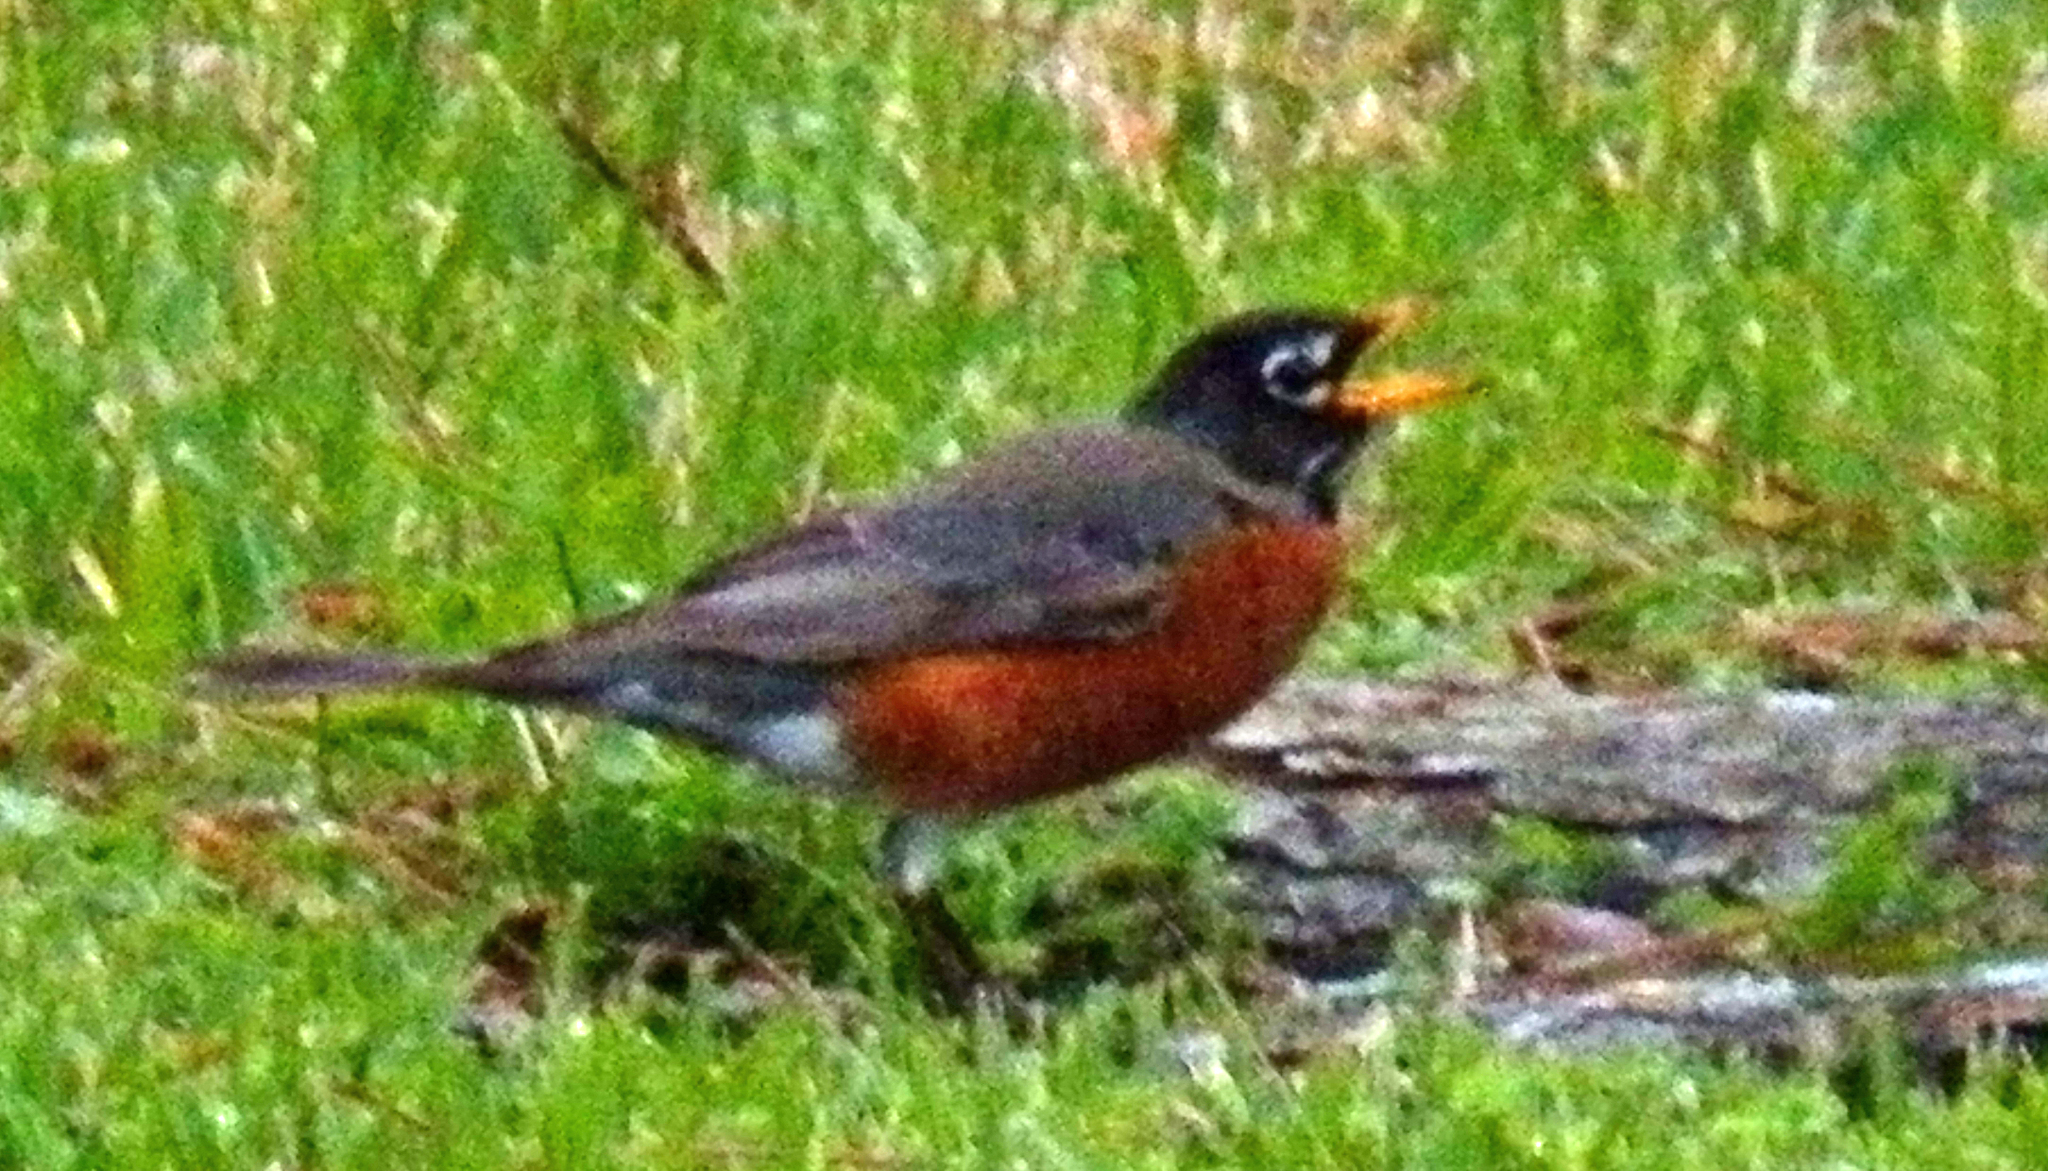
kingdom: Animalia
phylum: Chordata
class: Aves
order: Passeriformes
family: Turdidae
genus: Turdus
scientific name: Turdus migratorius
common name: American robin
